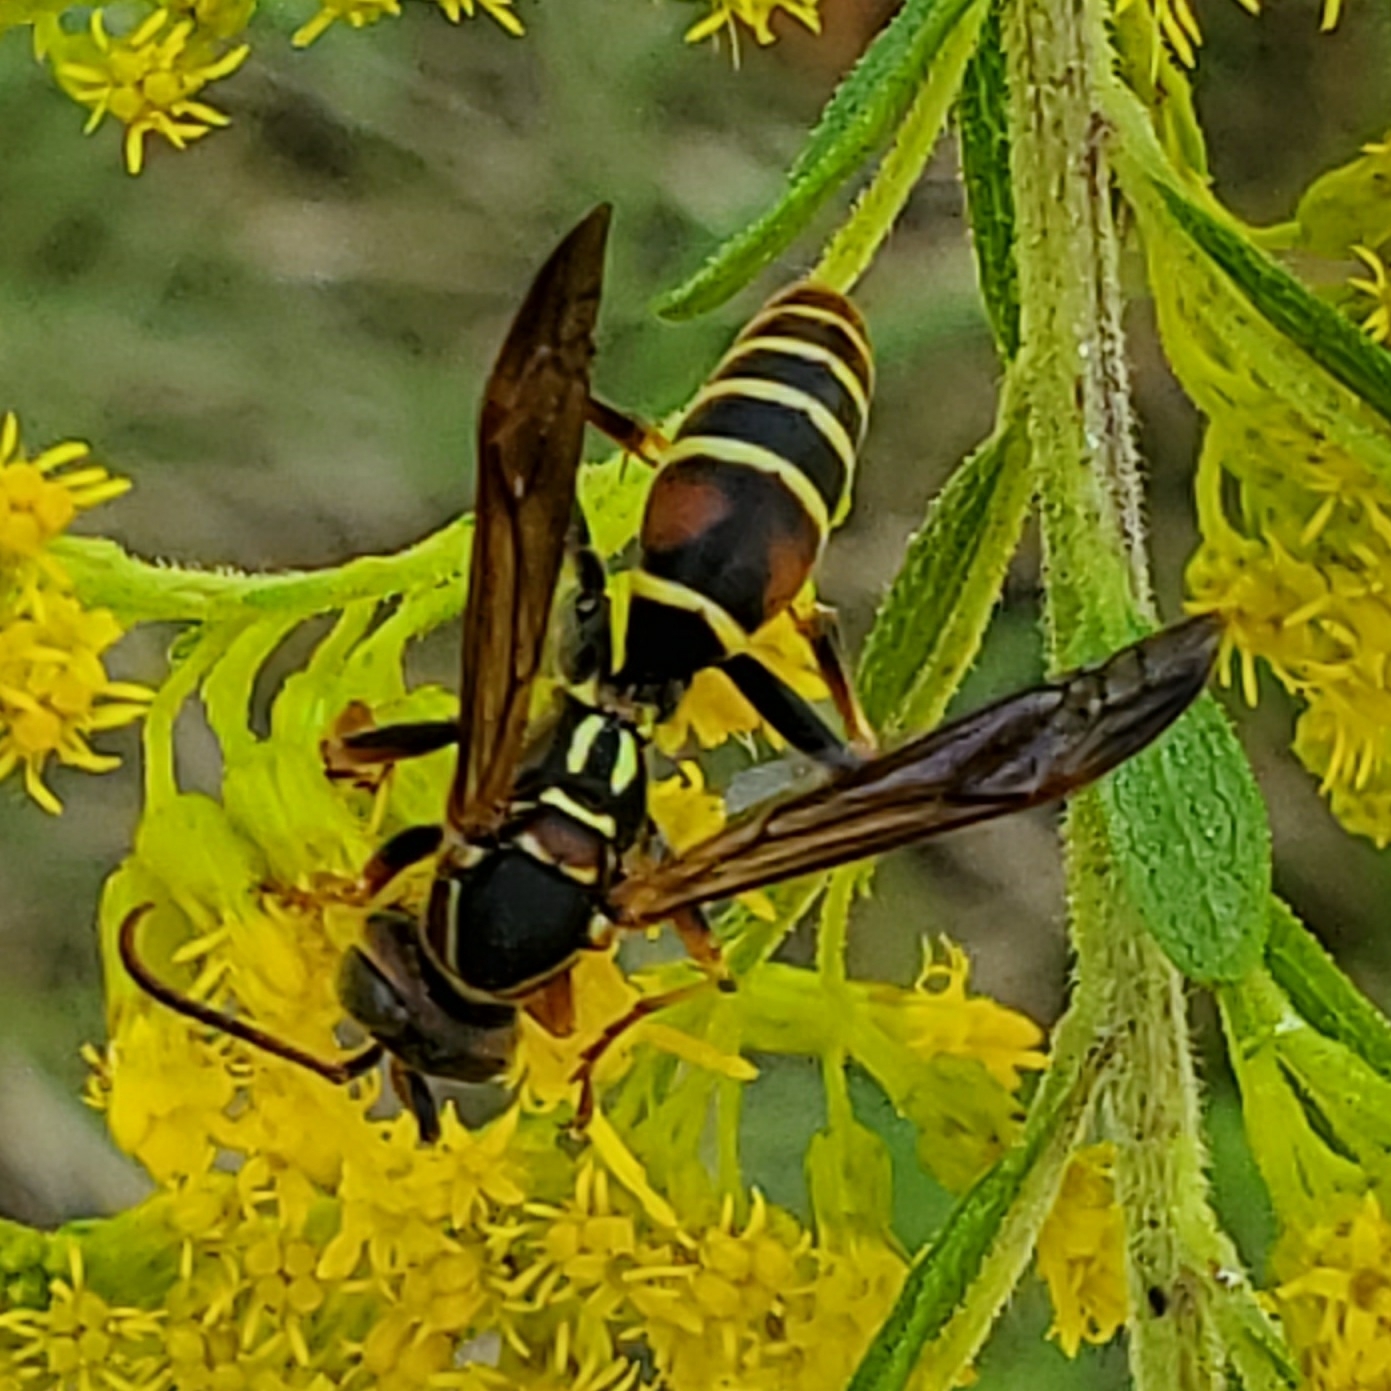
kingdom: Animalia
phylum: Arthropoda
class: Insecta
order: Hymenoptera
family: Eumenidae
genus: Polistes
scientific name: Polistes dorsalis
